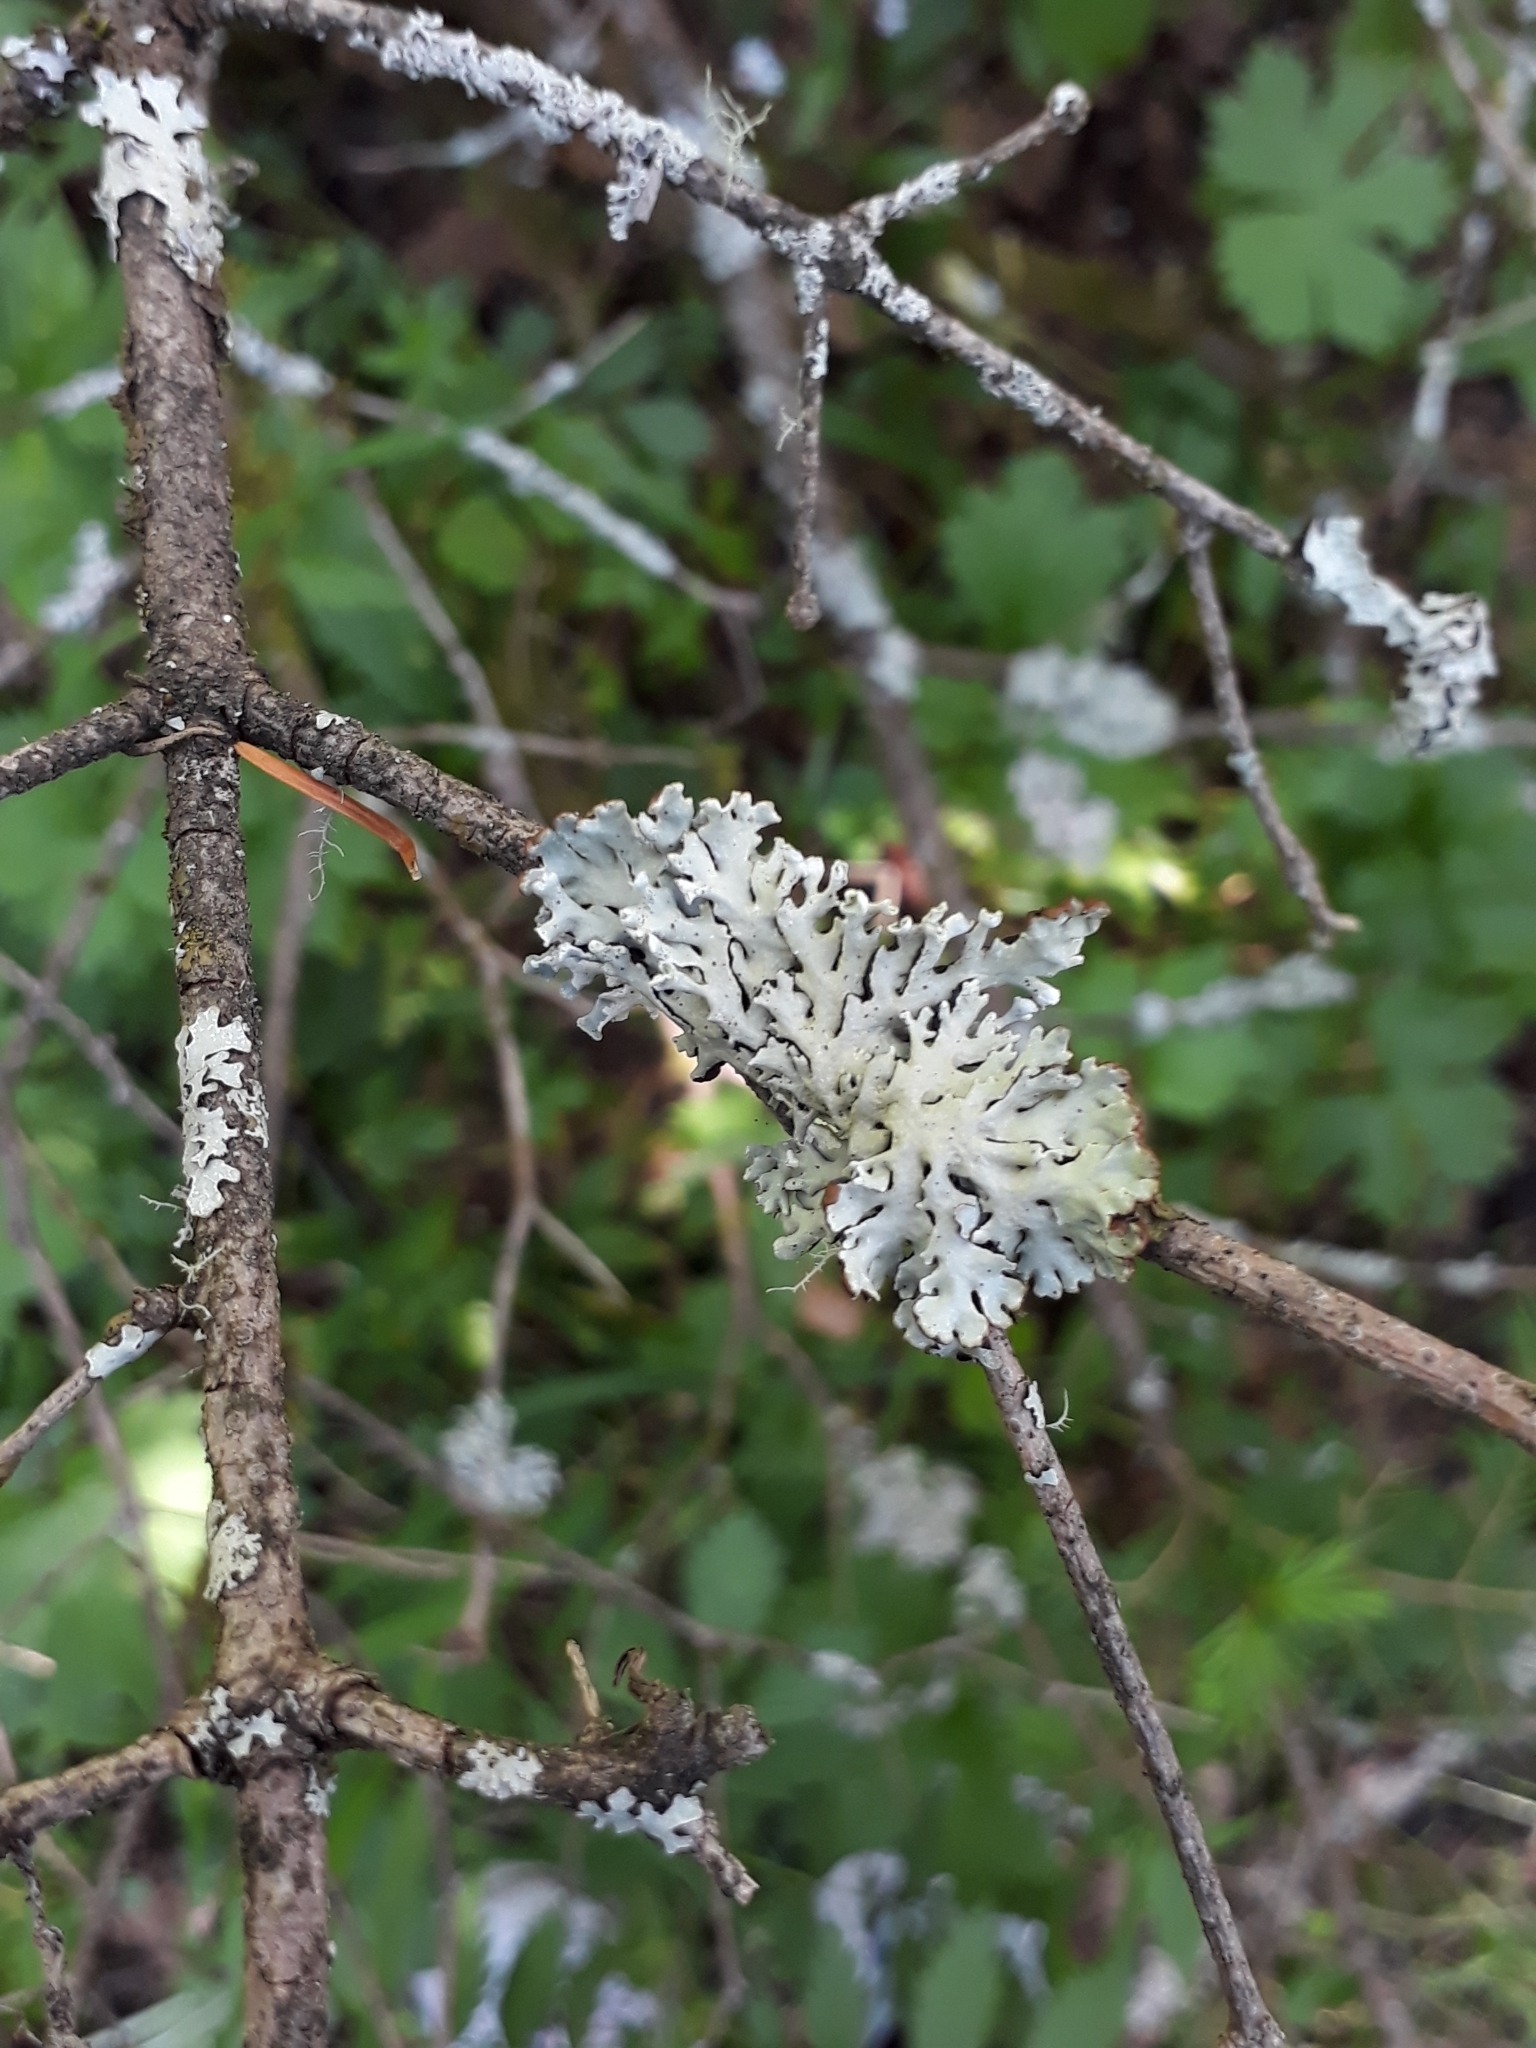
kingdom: Fungi
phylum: Ascomycota
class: Lecanoromycetes
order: Lecanorales
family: Parmeliaceae
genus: Hypogymnia
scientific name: Hypogymnia physodes
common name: Dark crottle
